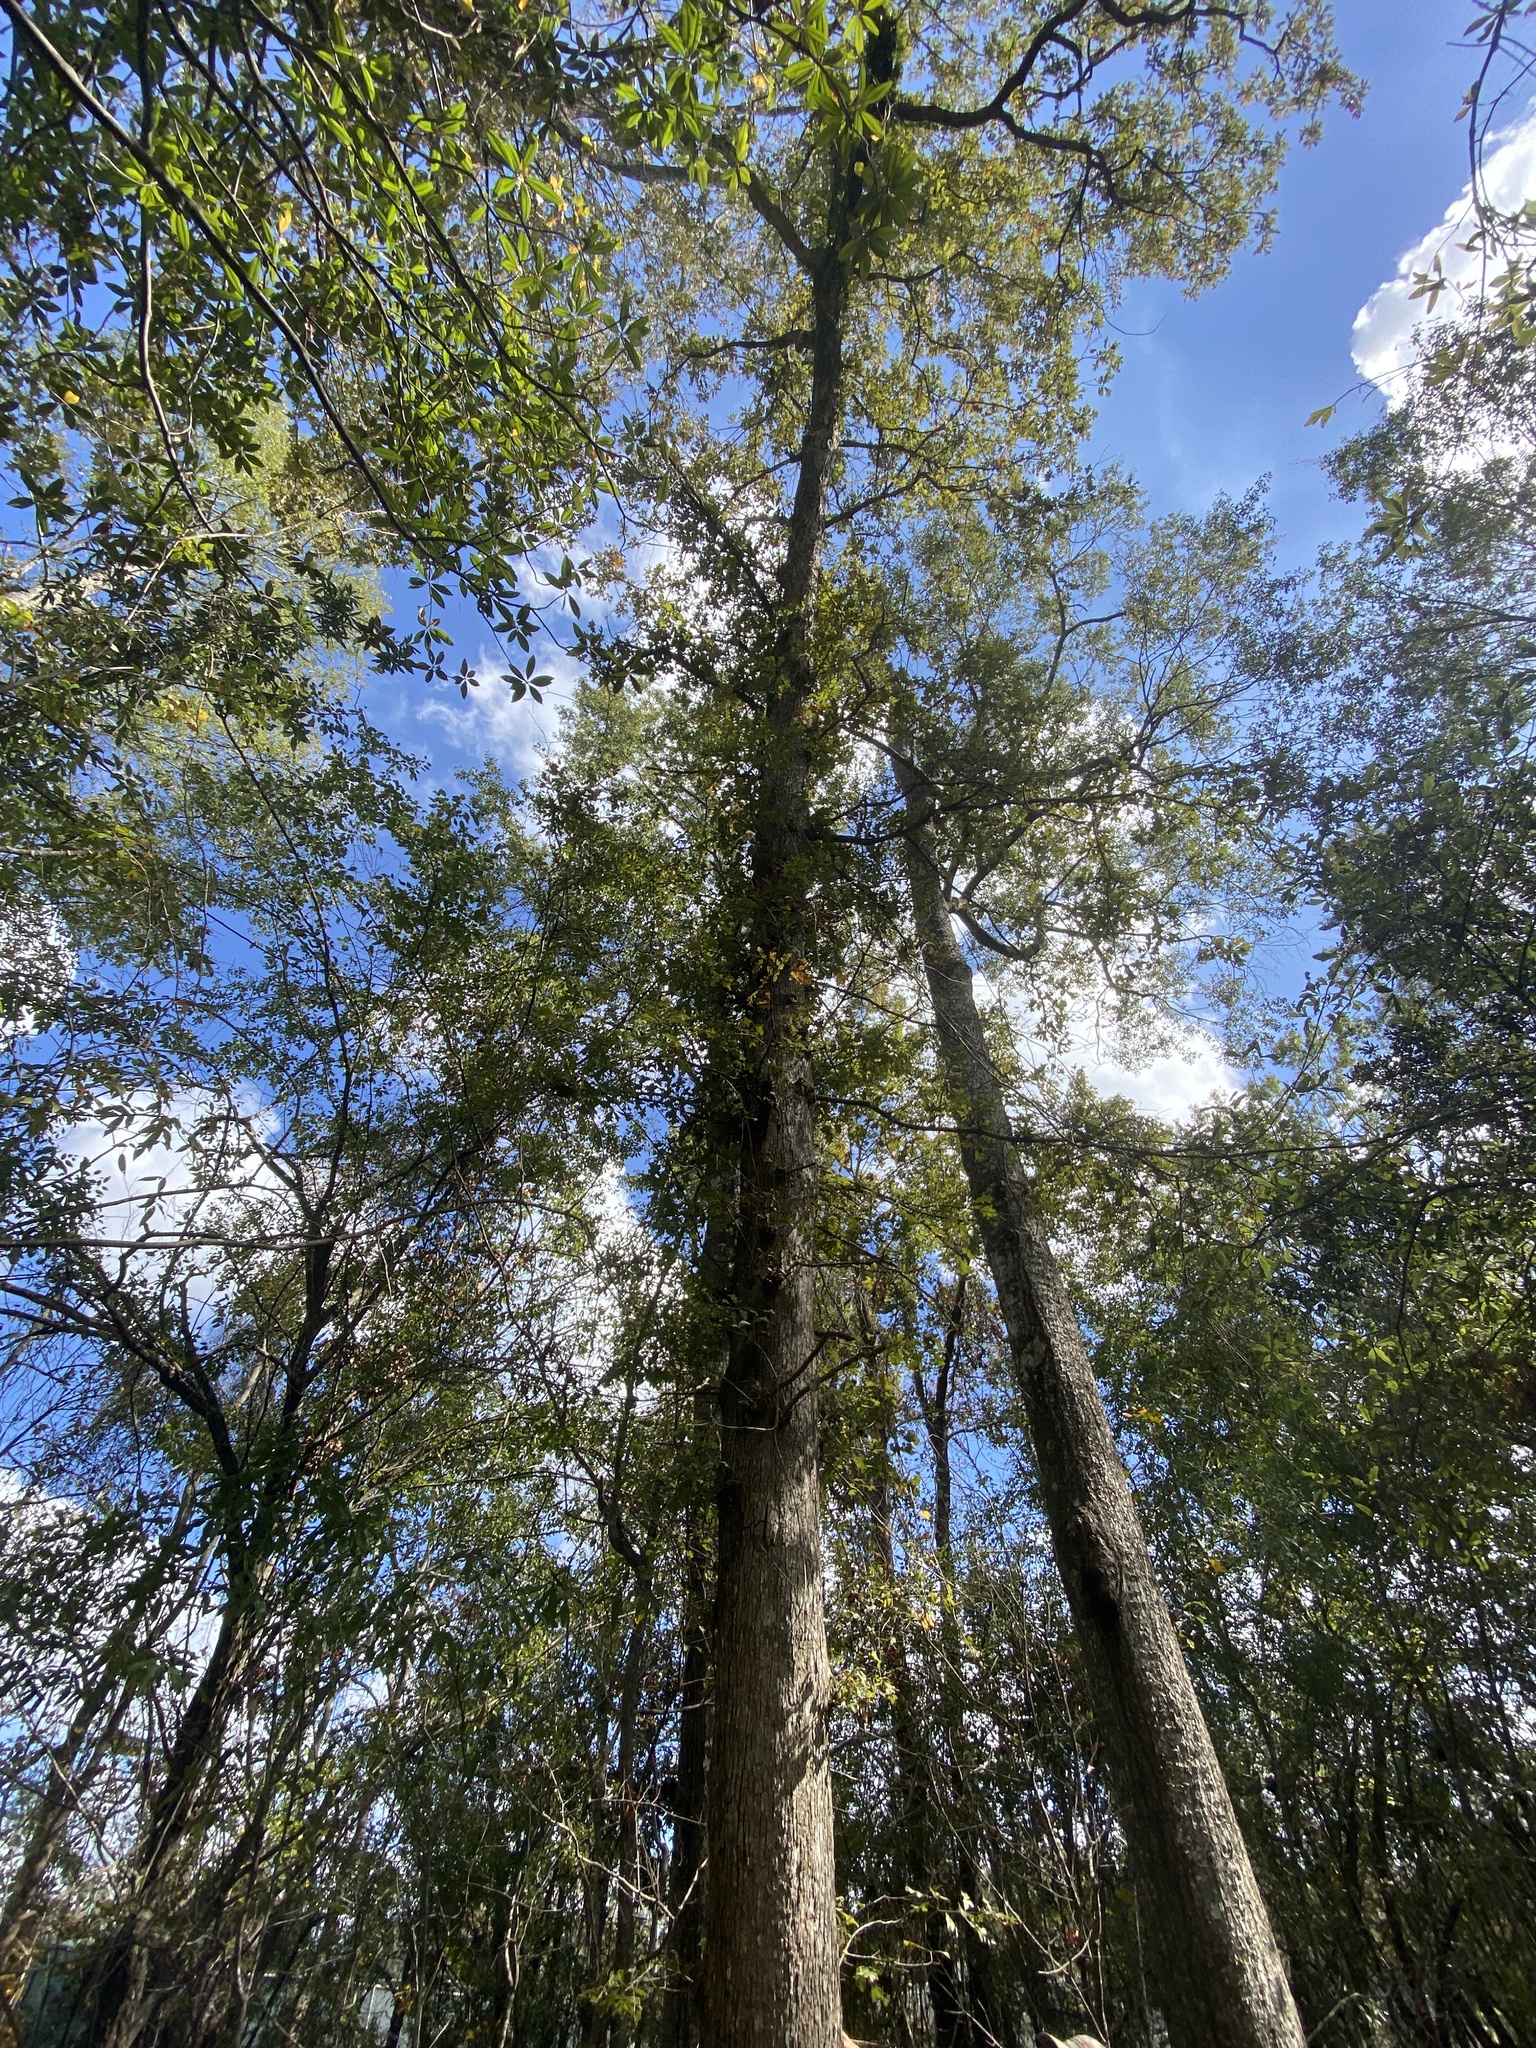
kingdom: Plantae
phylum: Tracheophyta
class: Magnoliopsida
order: Fagales
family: Fagaceae
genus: Quercus
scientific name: Quercus stellata
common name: Post oak
